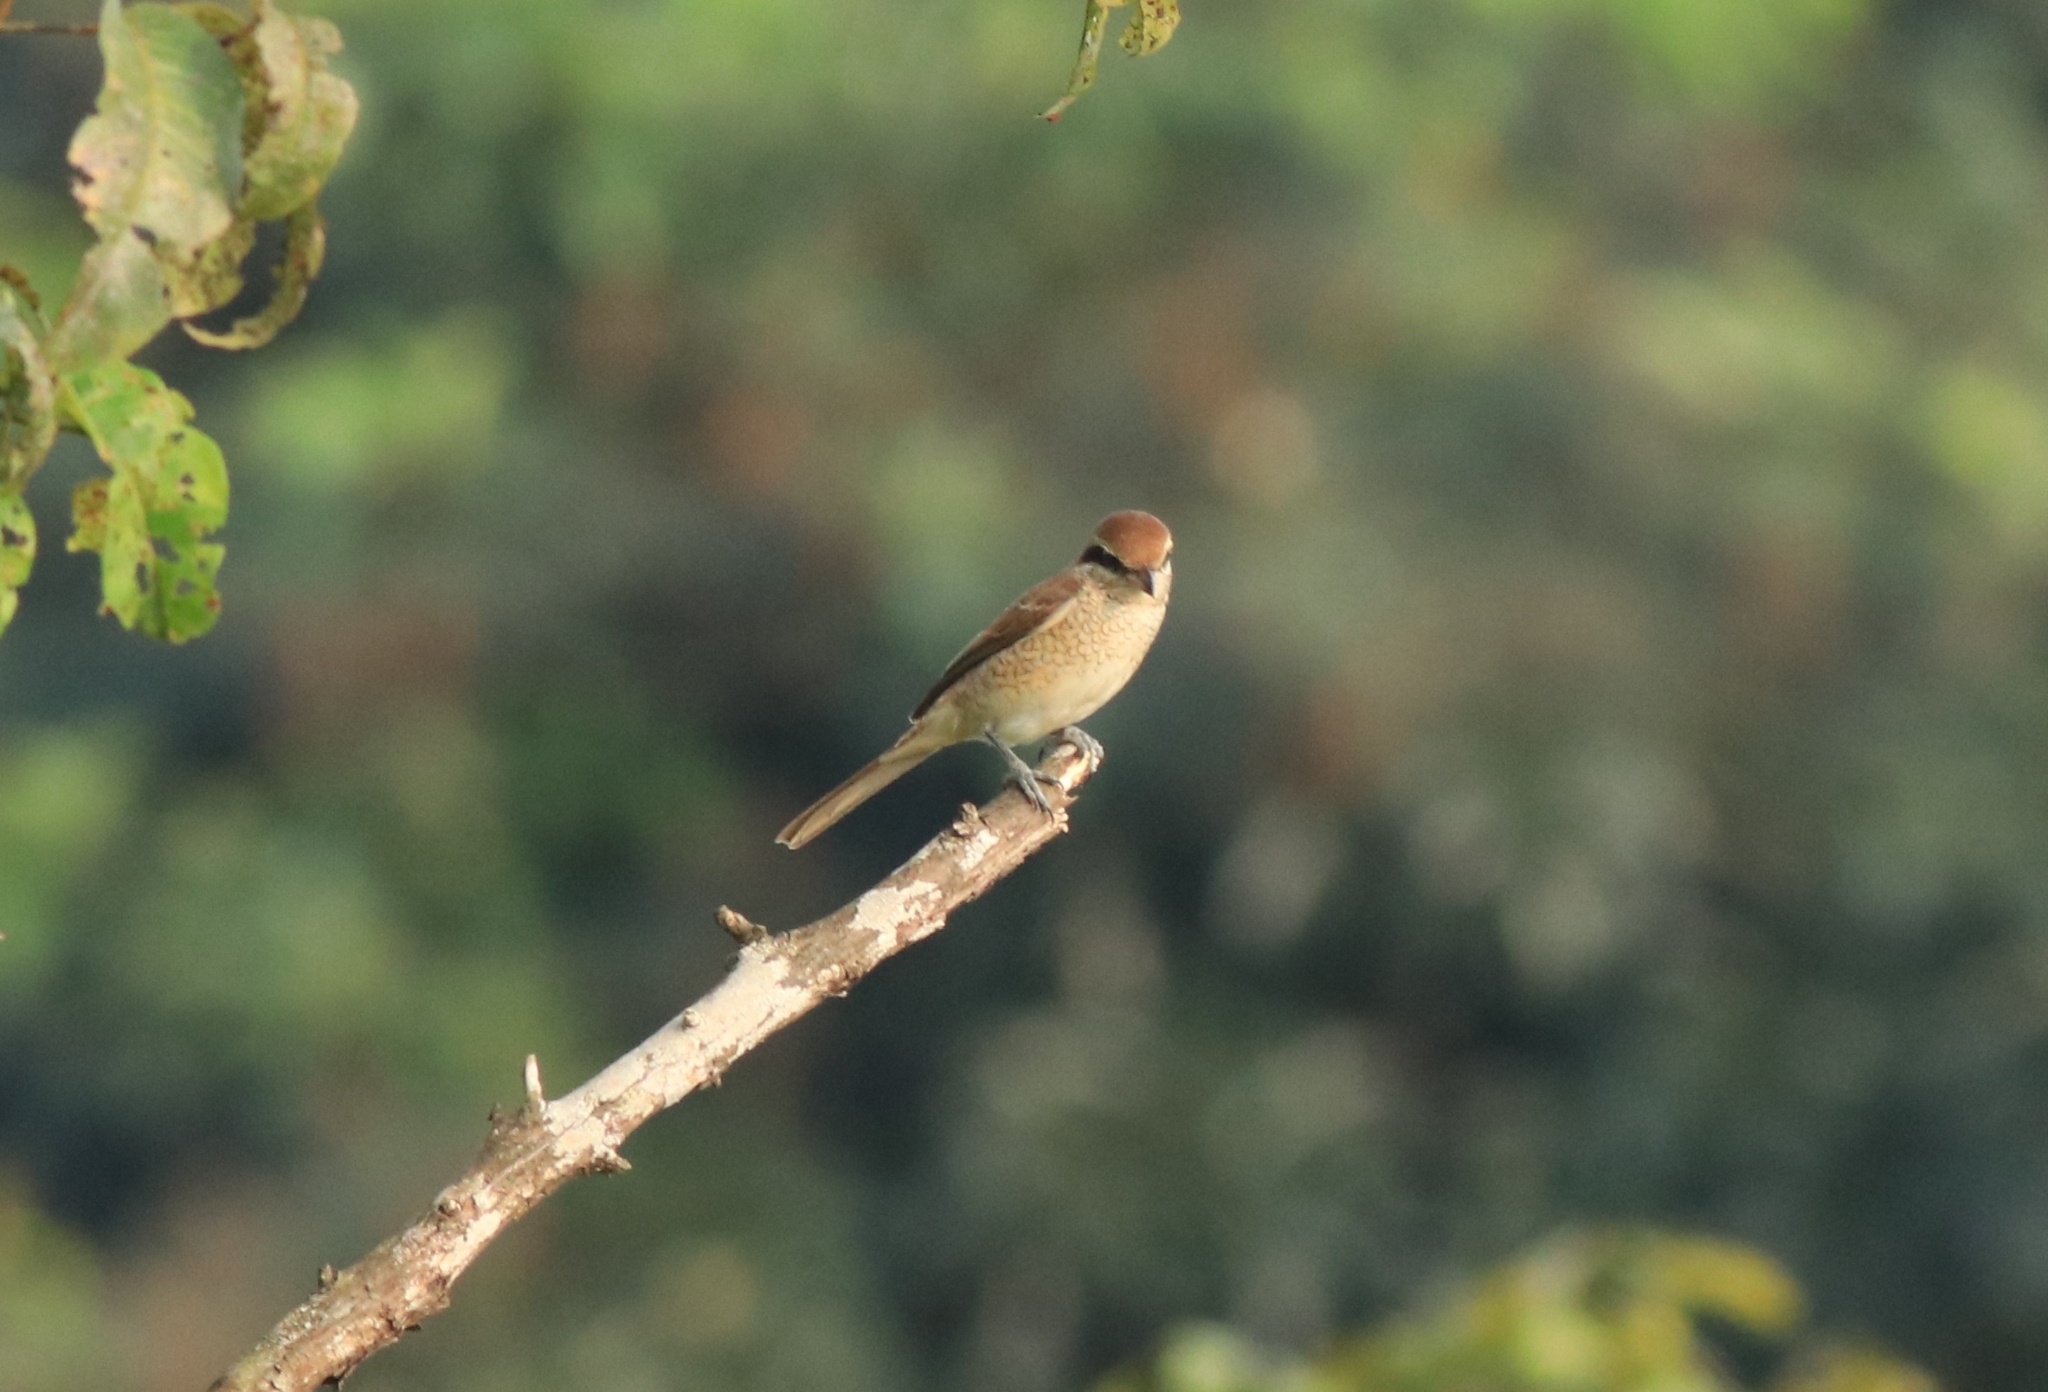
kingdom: Animalia
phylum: Chordata
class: Aves
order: Passeriformes
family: Laniidae
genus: Lanius
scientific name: Lanius cristatus
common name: Brown shrike
